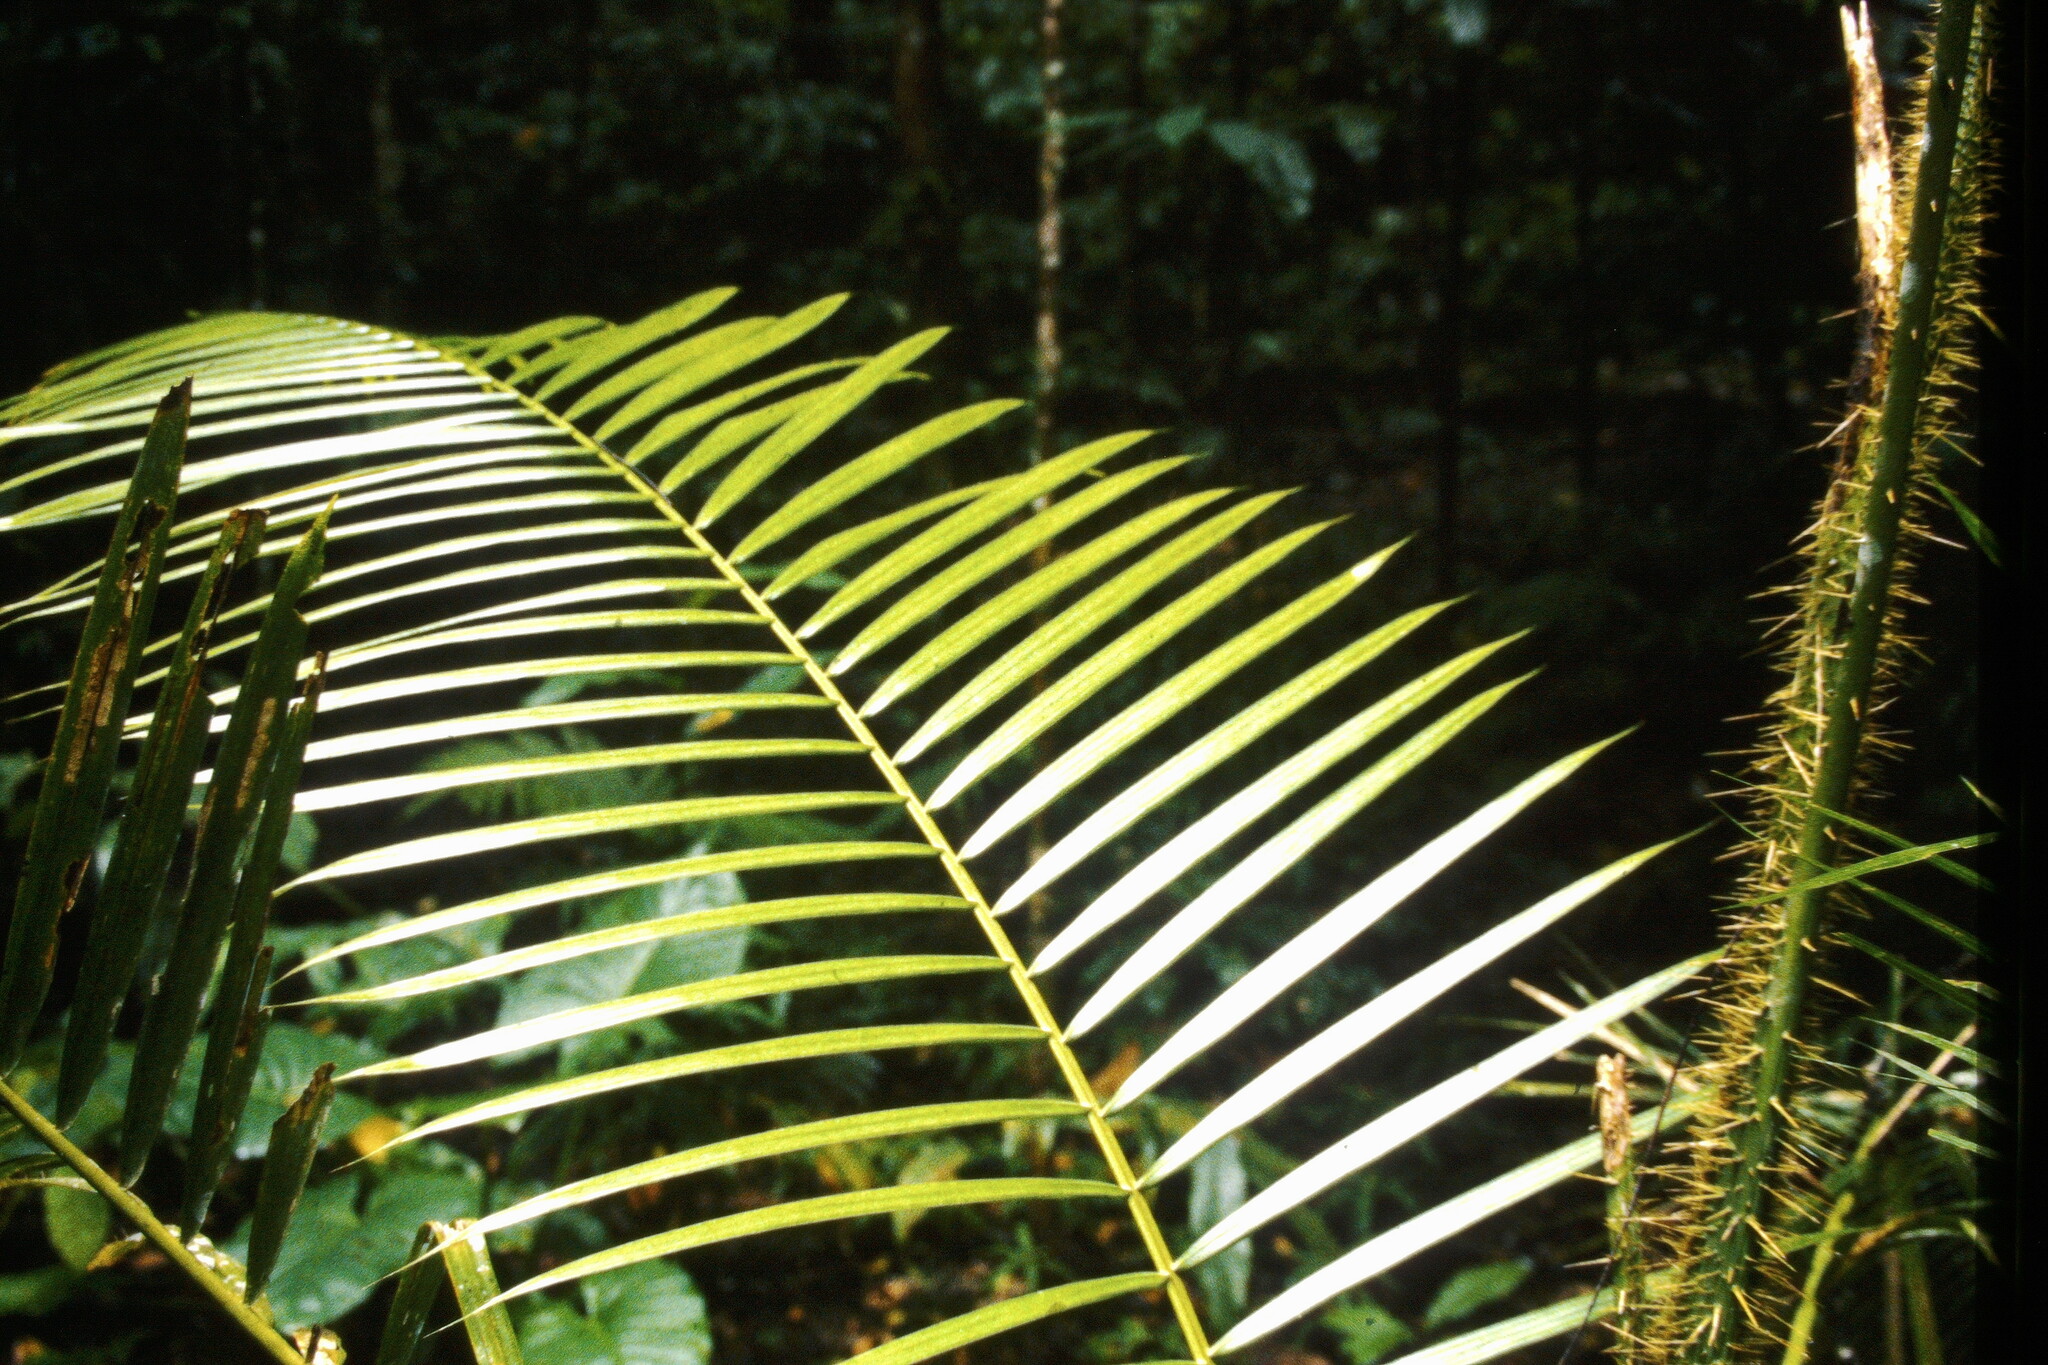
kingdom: Plantae
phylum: Tracheophyta
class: Liliopsida
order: Arecales
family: Arecaceae
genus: Calamus
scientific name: Calamus moti
